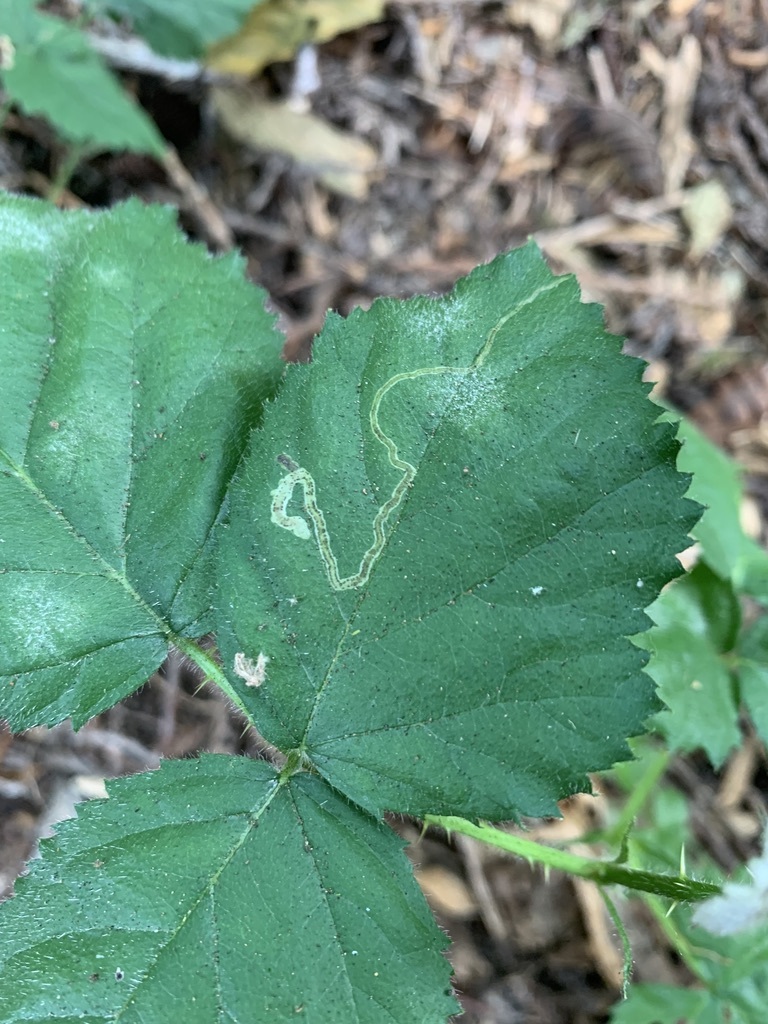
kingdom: Animalia
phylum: Arthropoda
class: Insecta
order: Diptera
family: Agromyzidae
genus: Agromyza
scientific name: Agromyza vockerothi
